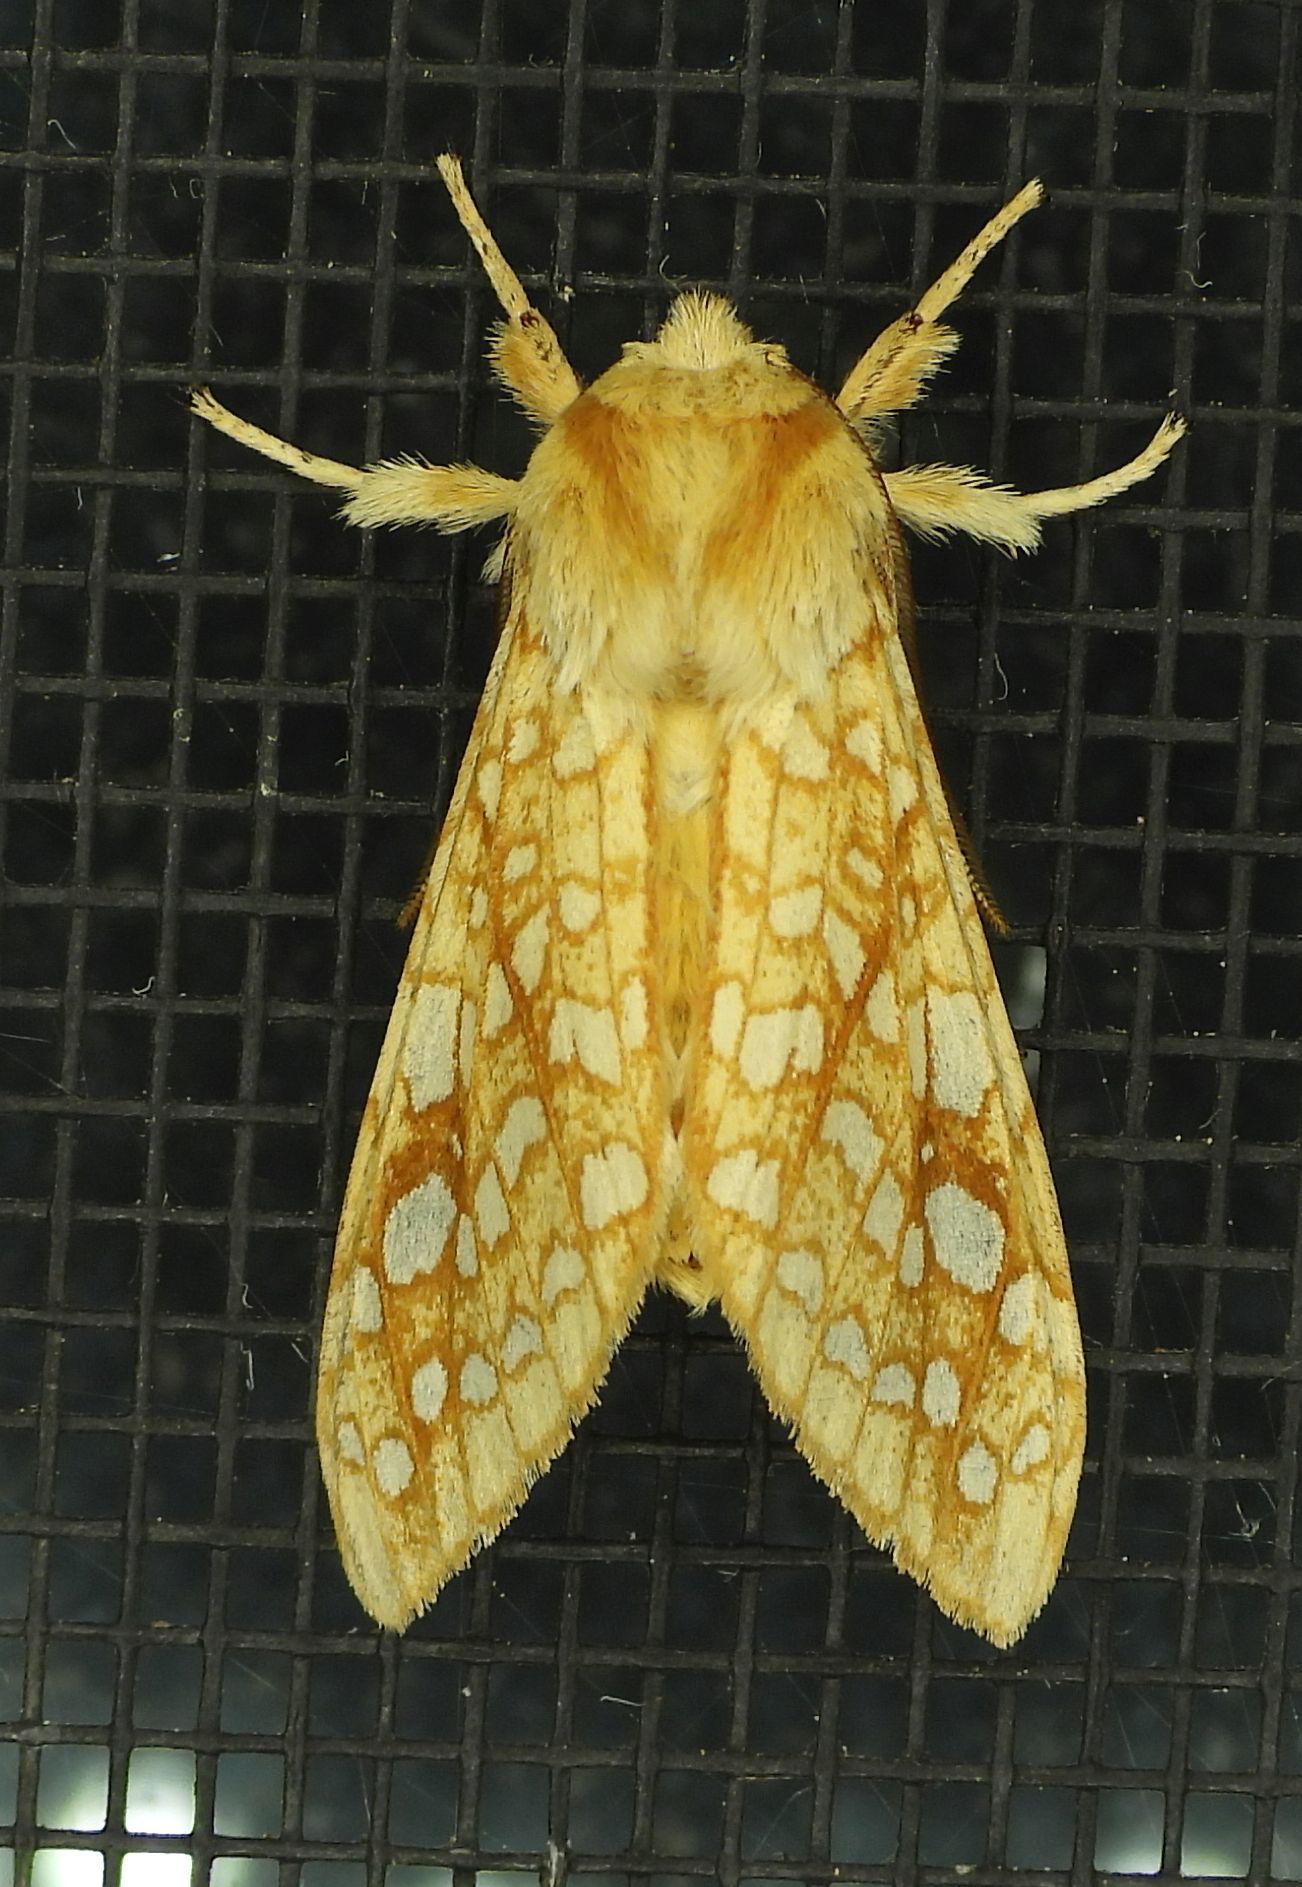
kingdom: Animalia
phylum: Arthropoda
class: Insecta
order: Lepidoptera
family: Erebidae
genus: Lophocampa
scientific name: Lophocampa caryae
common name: Hickory tussock moth
